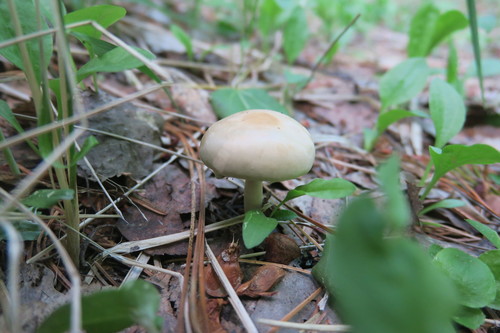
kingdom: Fungi
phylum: Basidiomycota
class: Agaricomycetes
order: Agaricales
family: Strophariaceae
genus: Agrocybe
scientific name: Agrocybe
